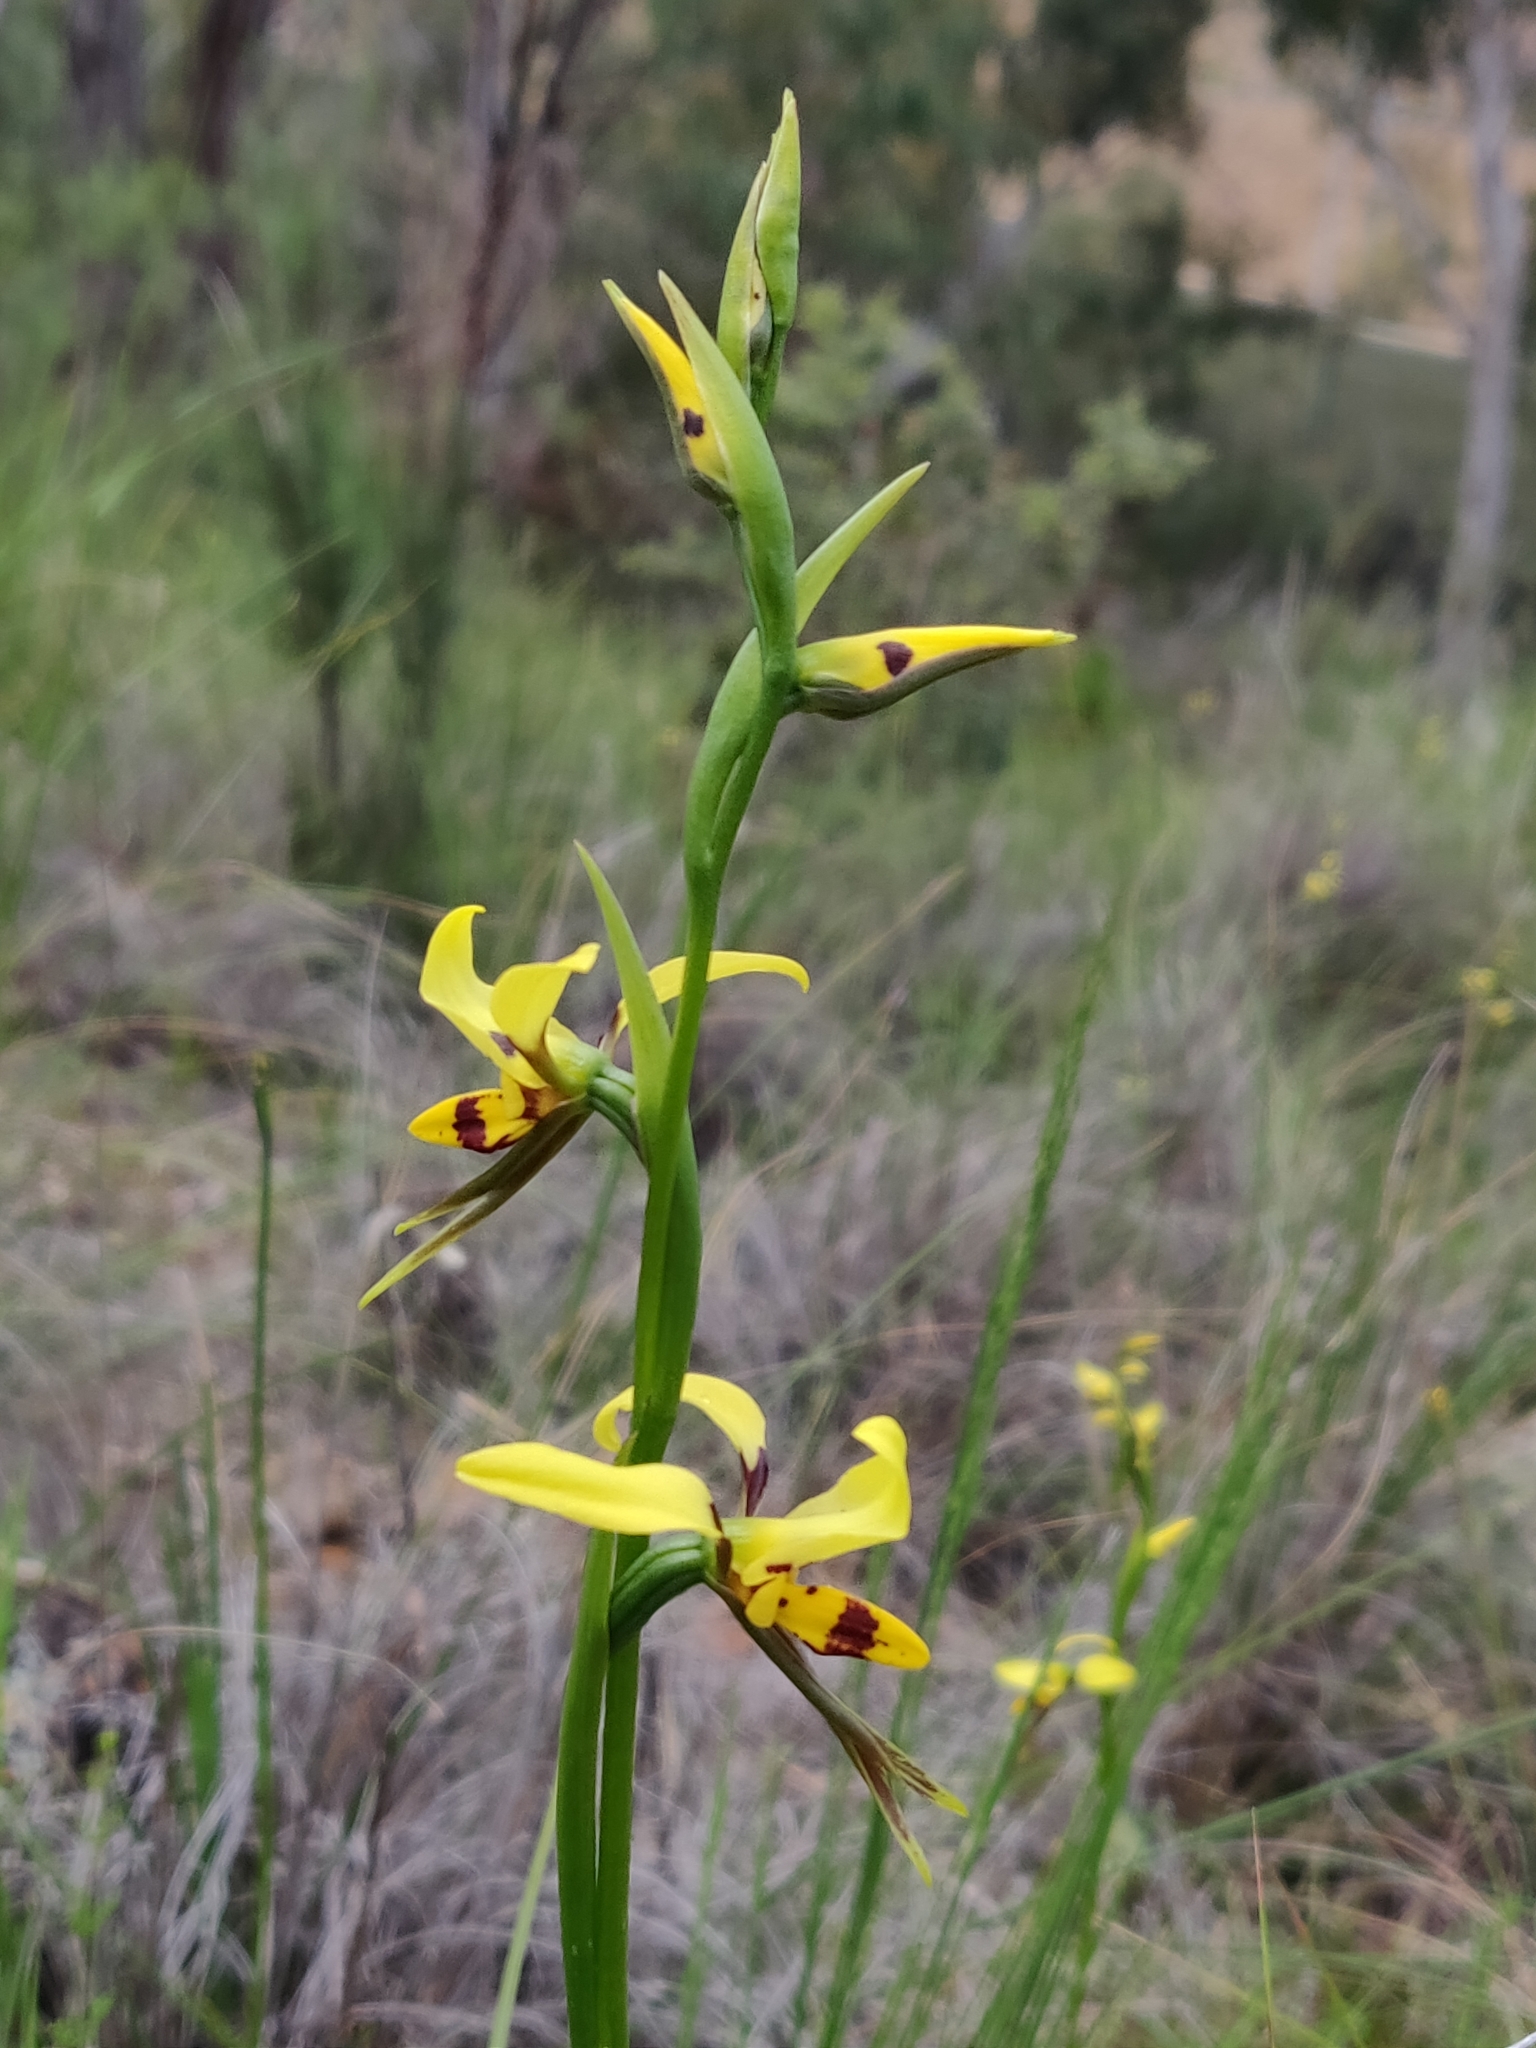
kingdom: Plantae
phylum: Tracheophyta
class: Liliopsida
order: Asparagales
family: Orchidaceae
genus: Diuris
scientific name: Diuris sulphurea
